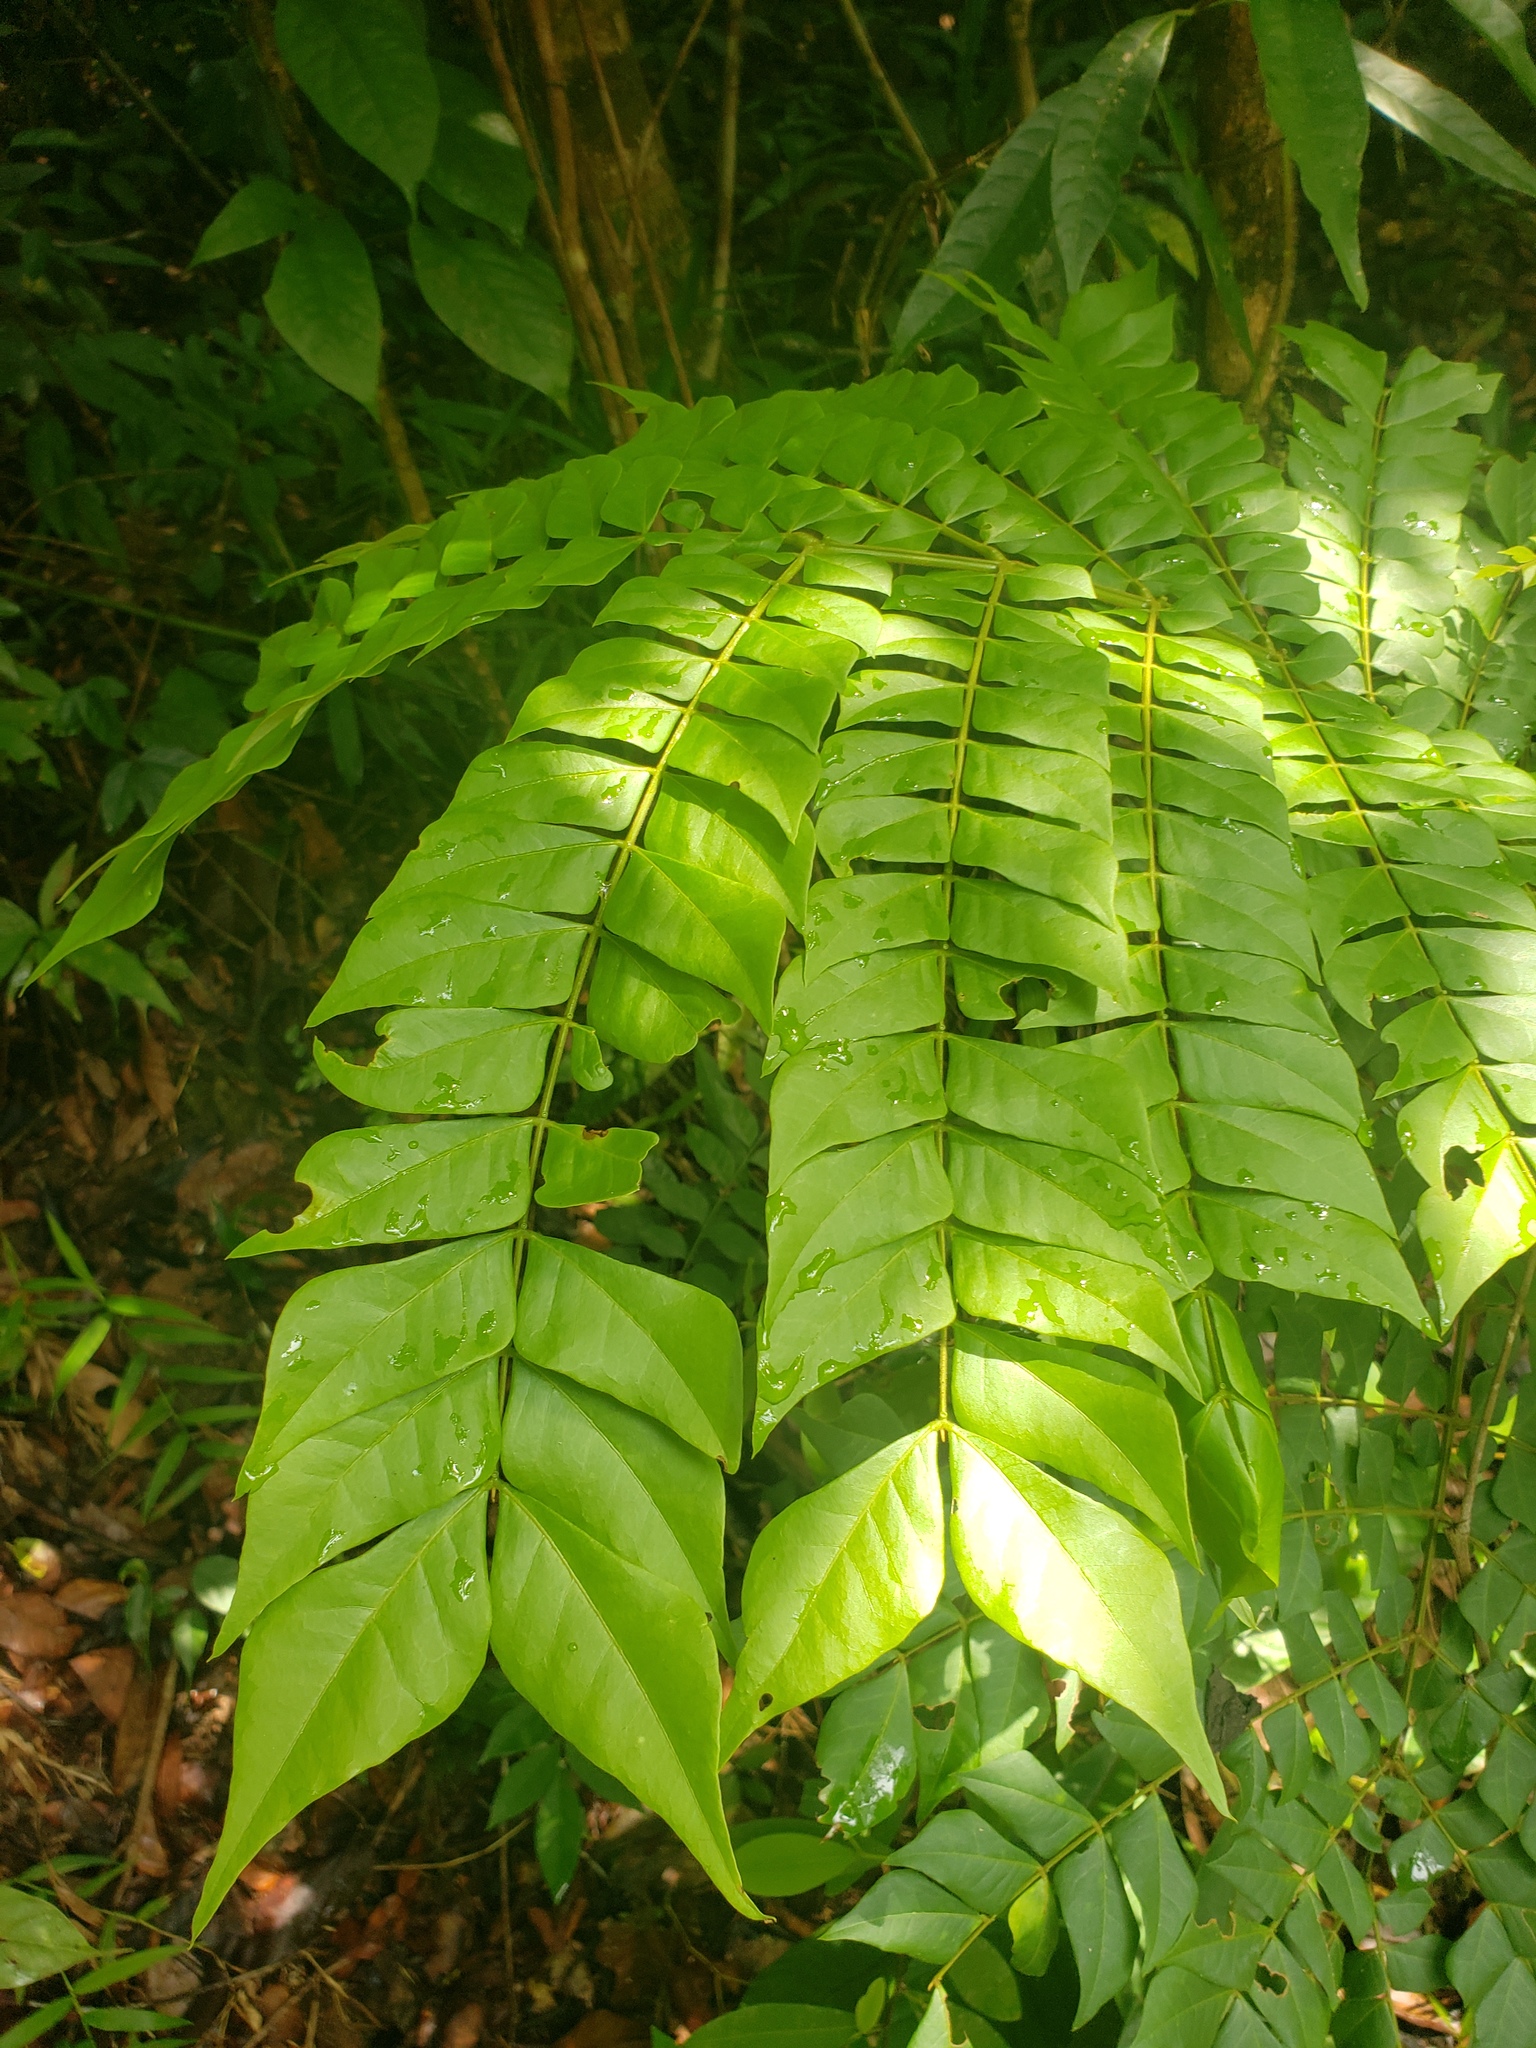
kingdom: Plantae
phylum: Tracheophyta
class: Magnoliopsida
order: Fabales
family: Fabaceae
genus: Archidendron
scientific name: Archidendron clypearia
